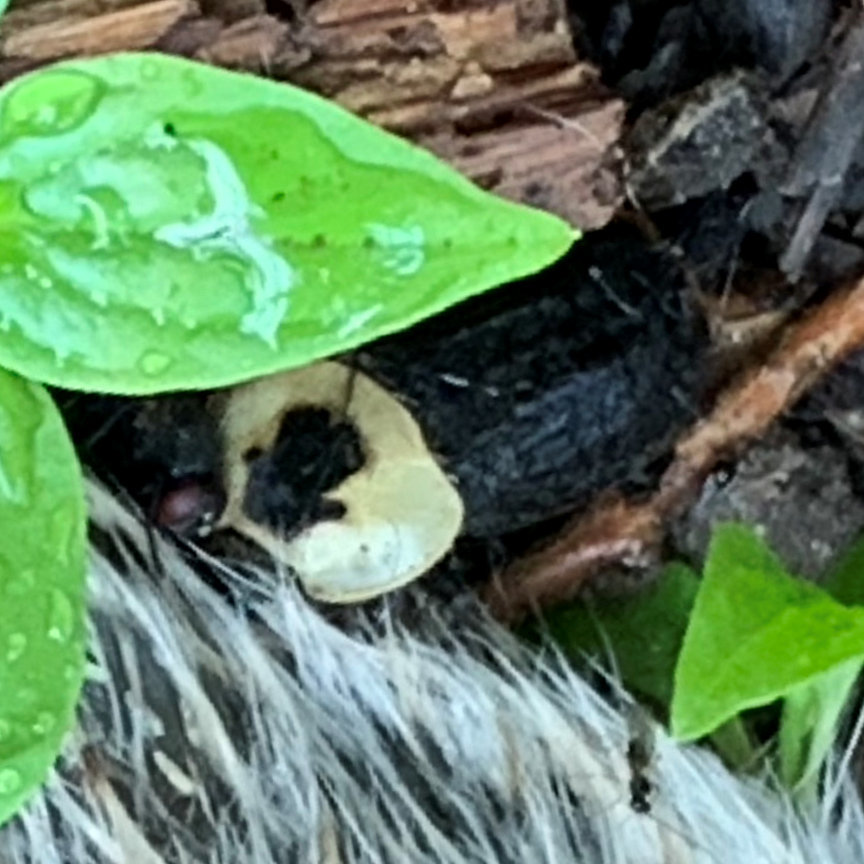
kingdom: Animalia
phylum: Arthropoda
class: Insecta
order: Coleoptera
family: Staphylinidae
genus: Necrophila
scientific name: Necrophila americana
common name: American carrion beetle
